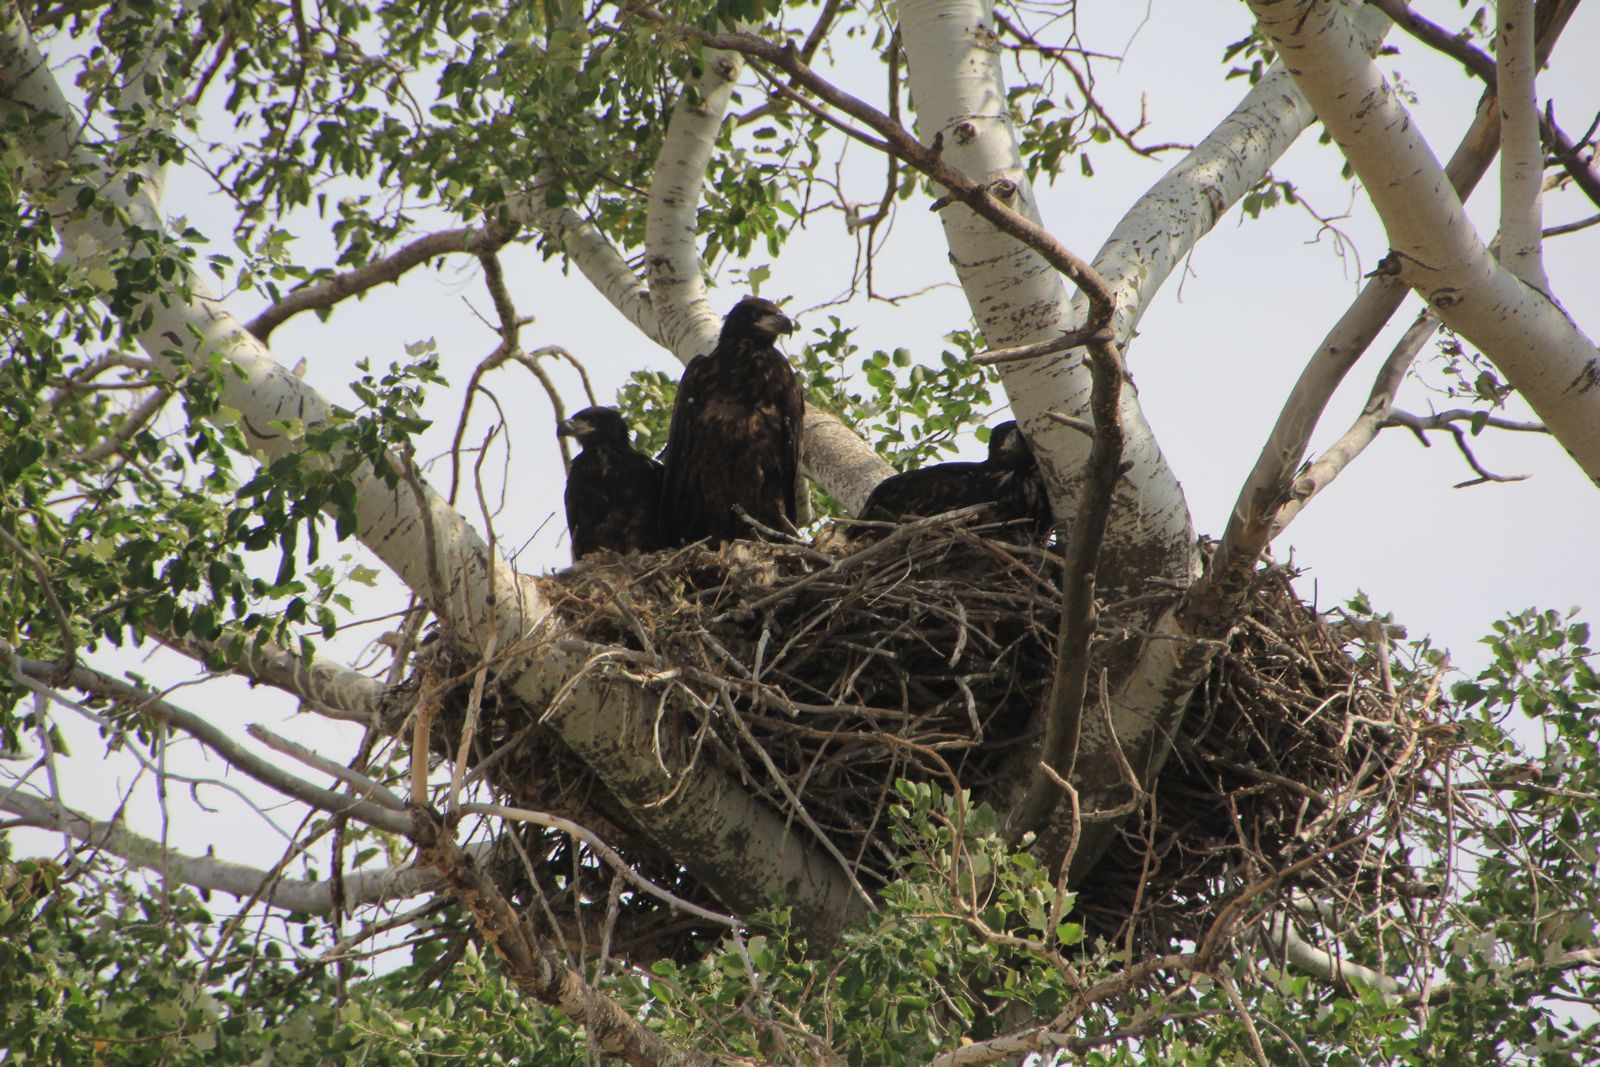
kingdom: Animalia
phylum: Chordata
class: Aves
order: Accipitriformes
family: Accipitridae
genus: Haliaeetus
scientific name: Haliaeetus albicilla
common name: White-tailed eagle
